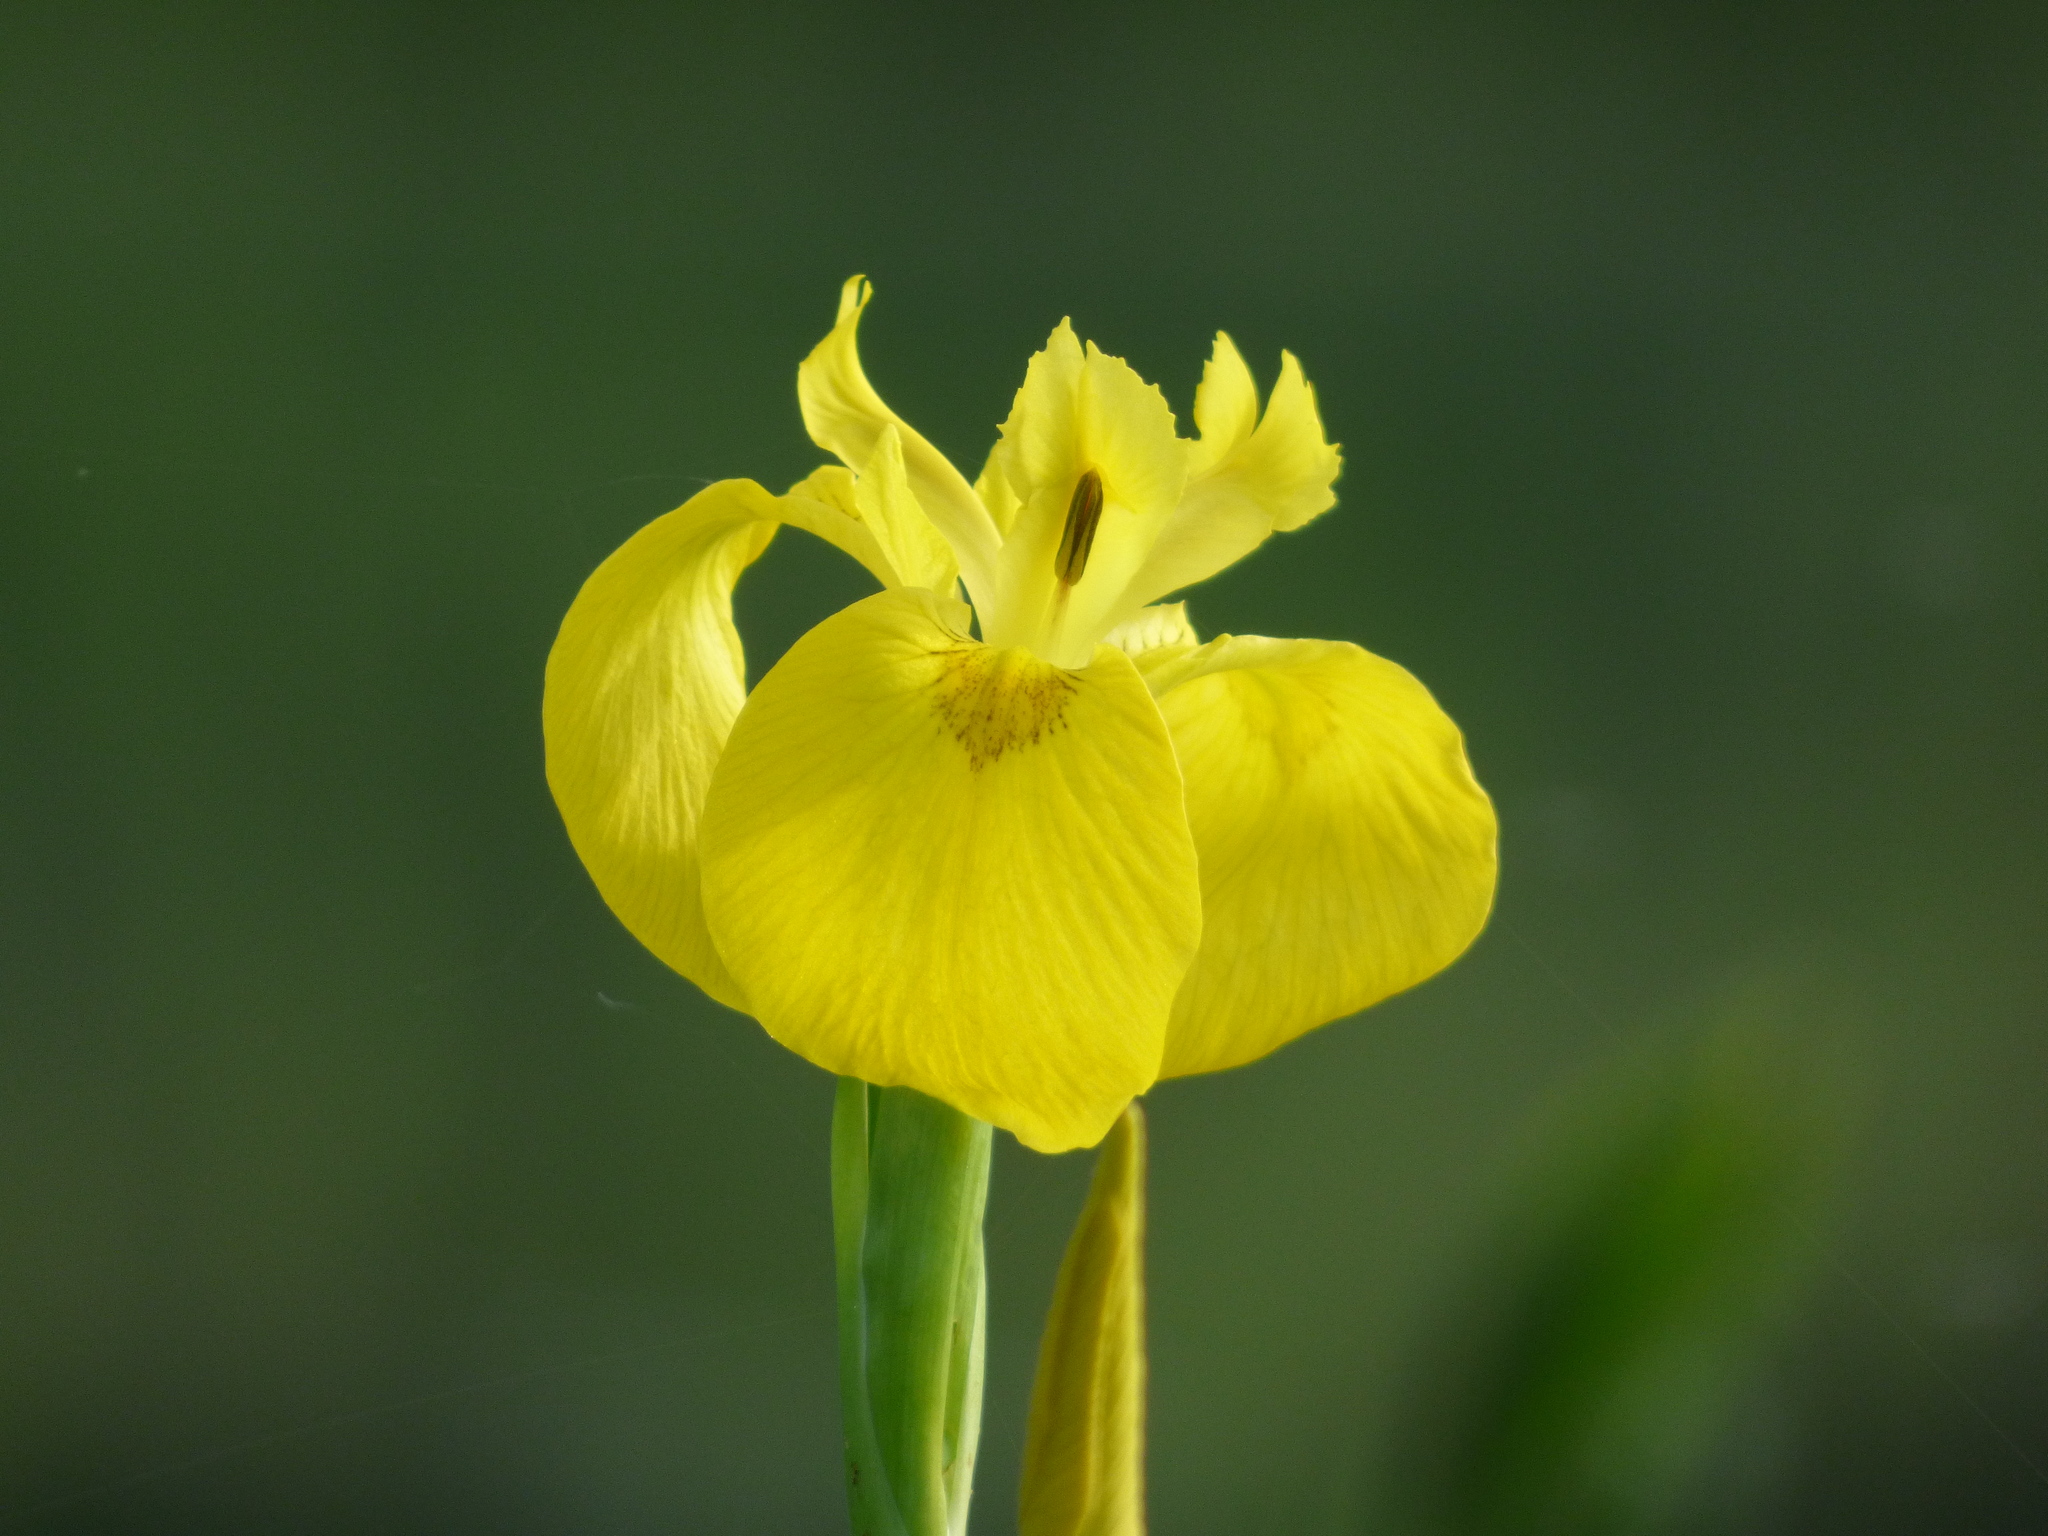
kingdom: Plantae
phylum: Tracheophyta
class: Liliopsida
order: Asparagales
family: Iridaceae
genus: Iris
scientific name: Iris pseudacorus
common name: Yellow flag
